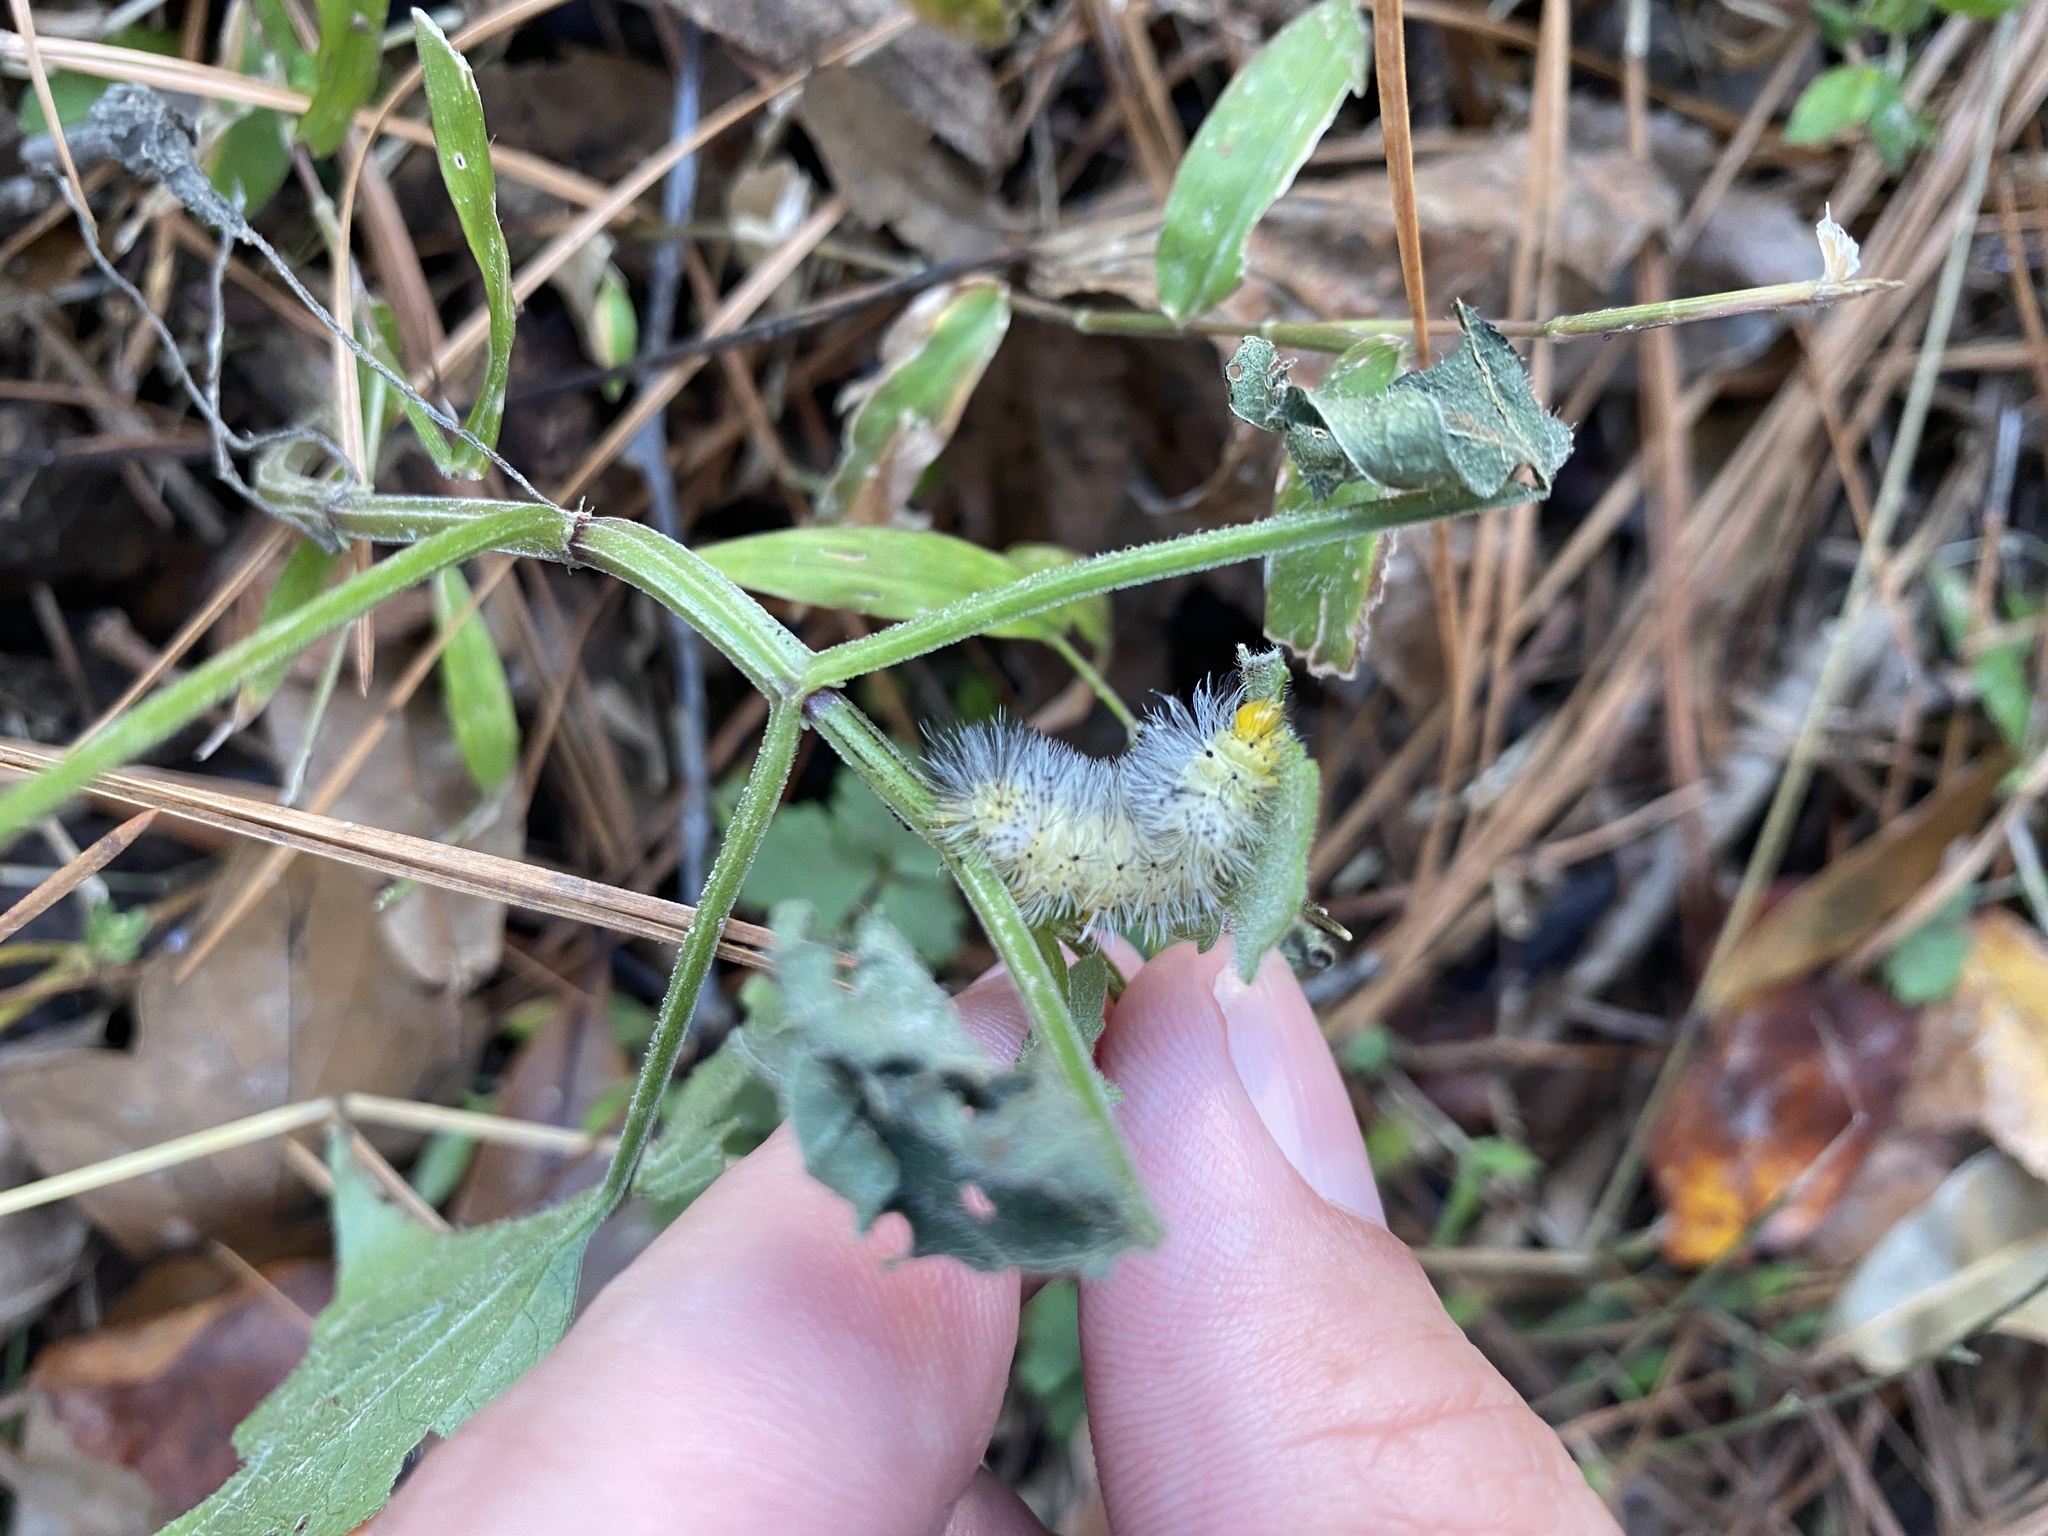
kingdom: Animalia
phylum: Arthropoda
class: Insecta
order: Lepidoptera
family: Erebidae
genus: Cosmosoma
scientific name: Cosmosoma myrodora
